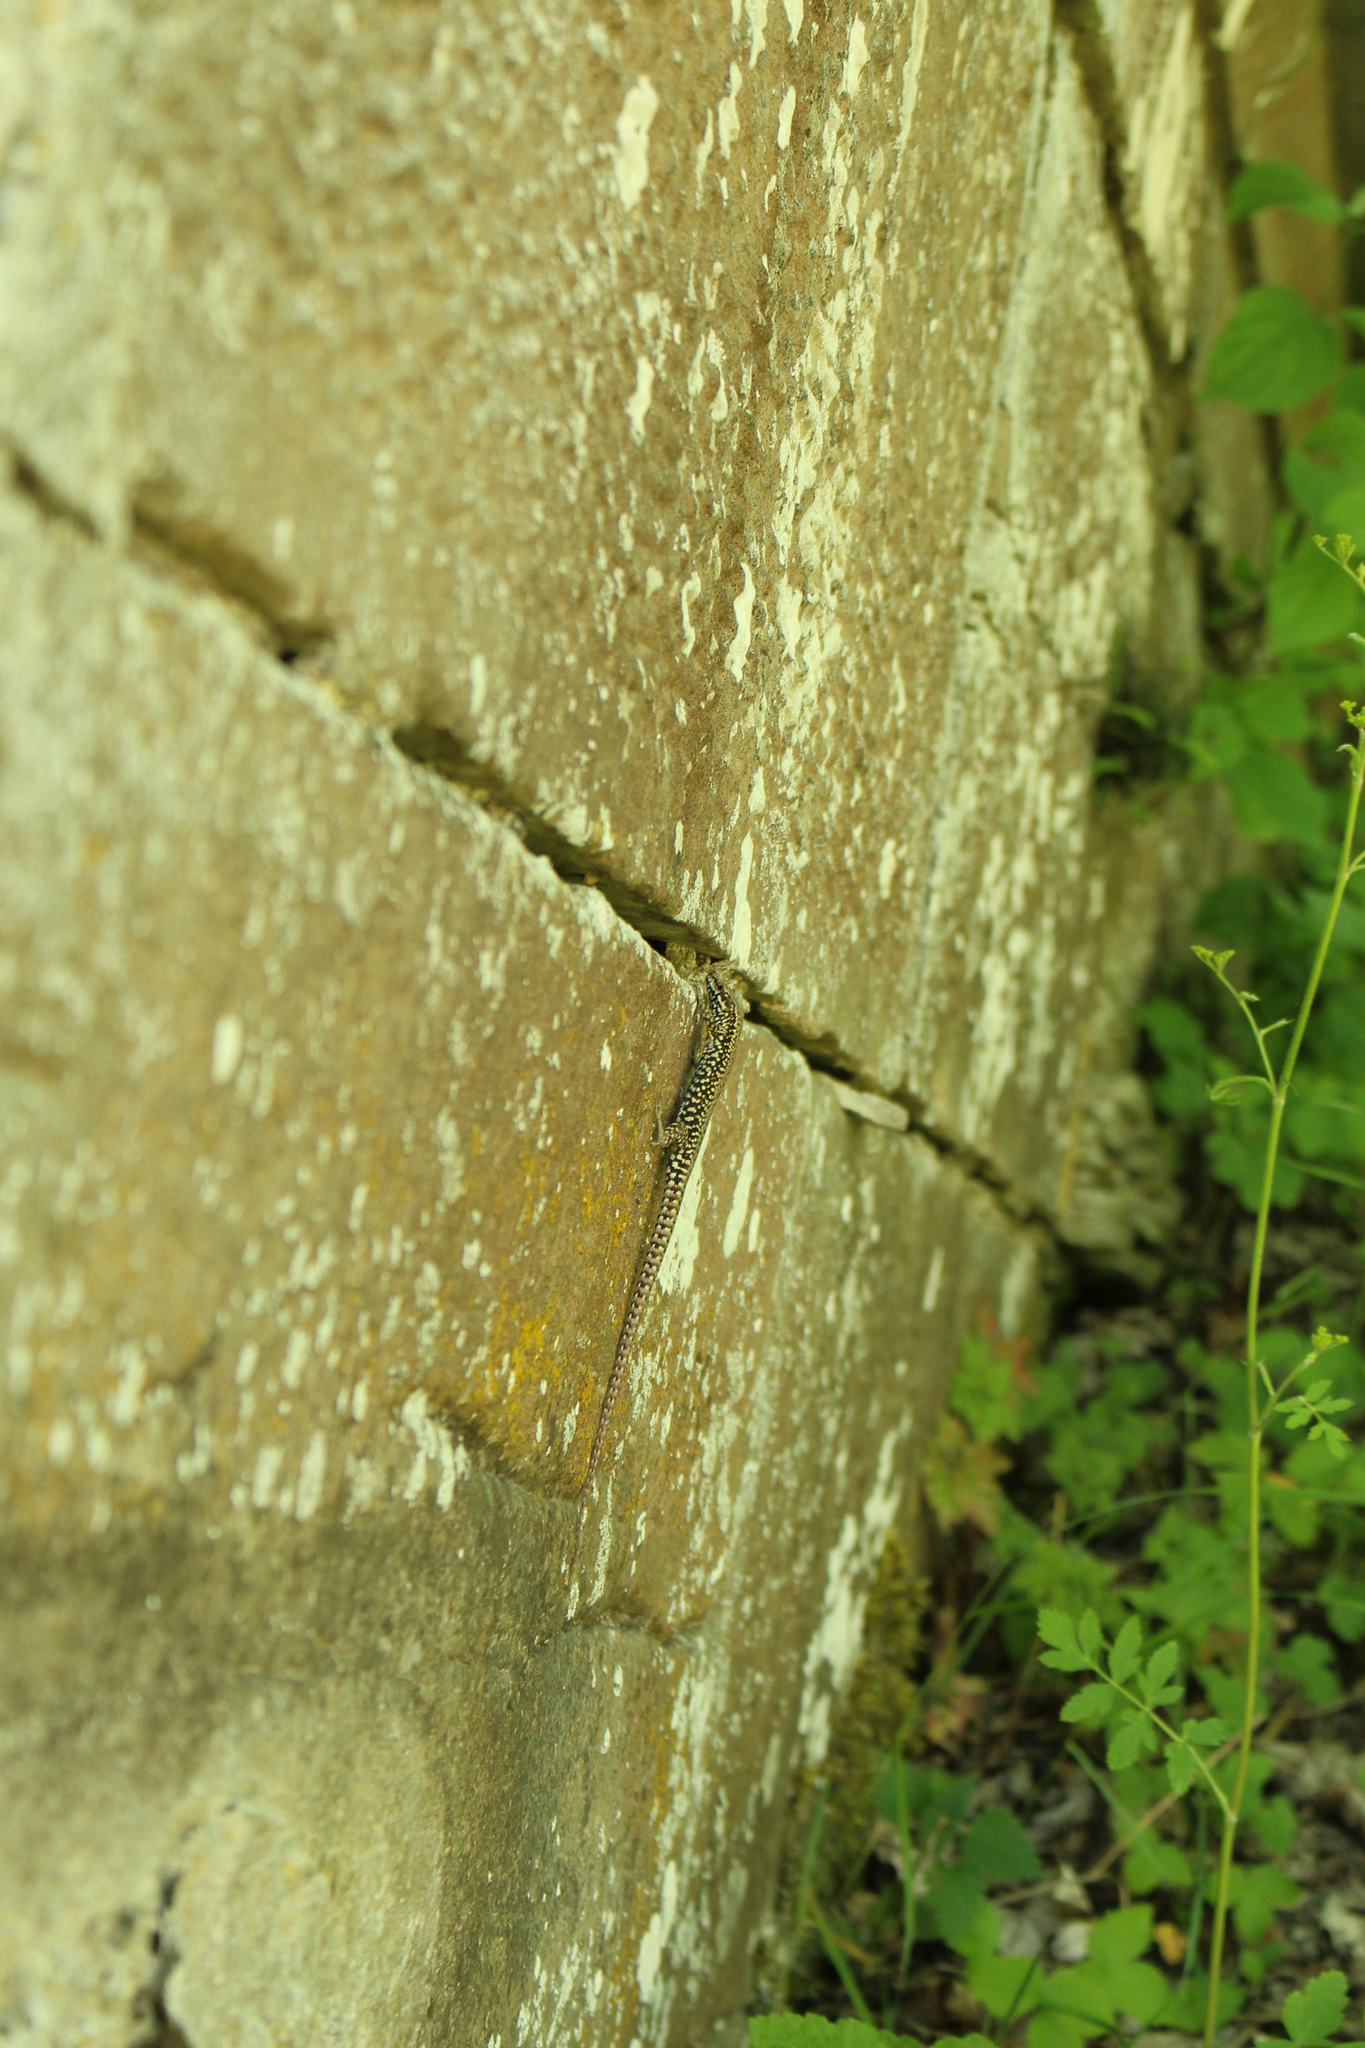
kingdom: Animalia
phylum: Chordata
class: Squamata
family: Lacertidae
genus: Podarcis
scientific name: Podarcis muralis
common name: Common wall lizard
